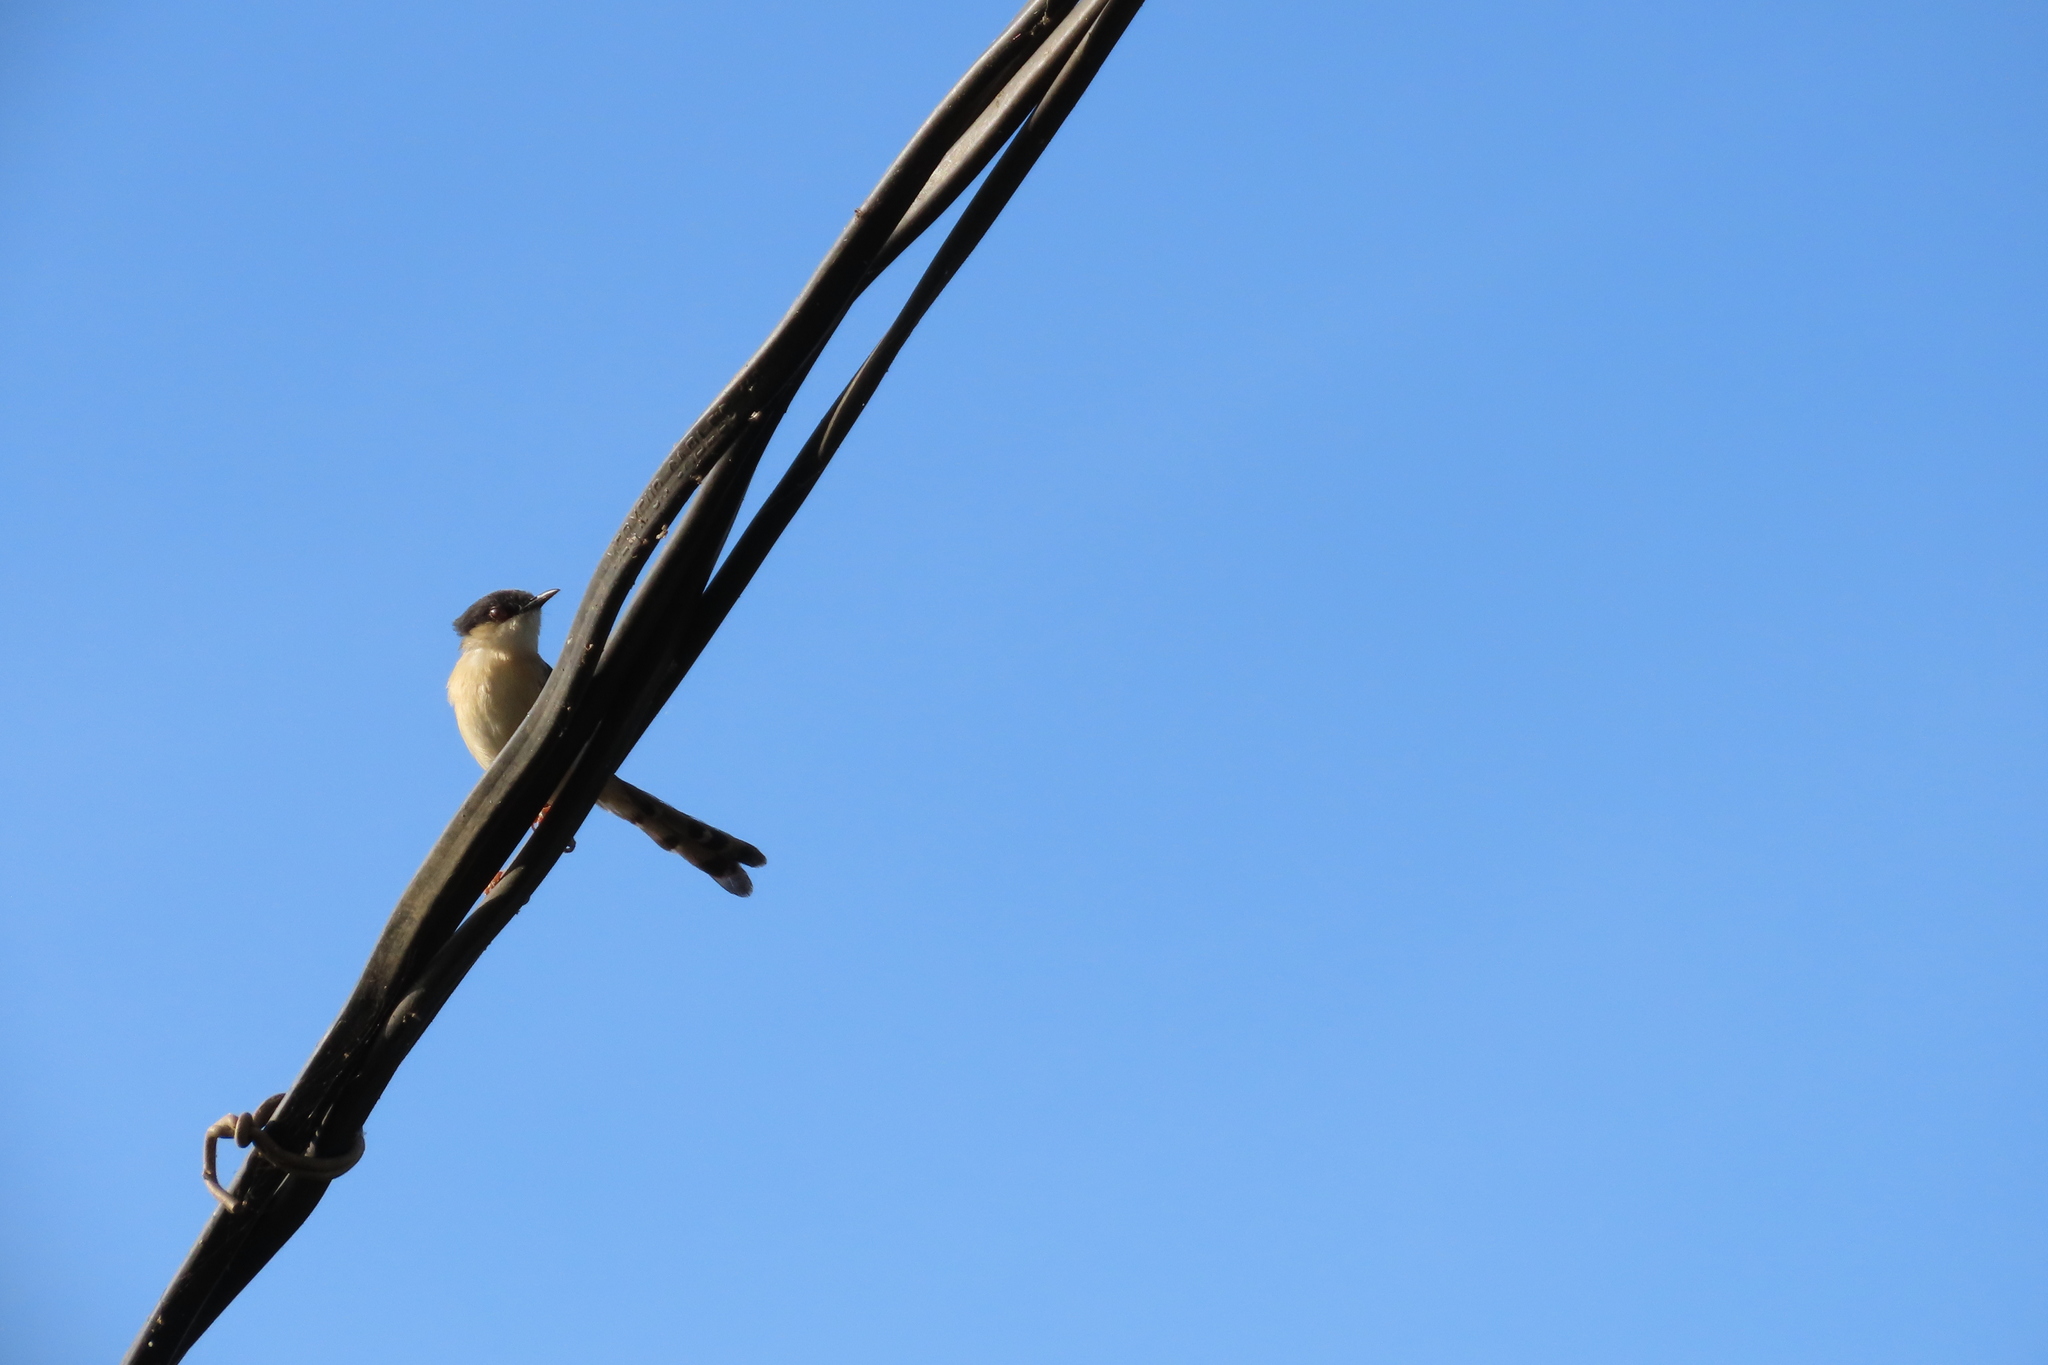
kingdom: Animalia
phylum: Chordata
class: Aves
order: Passeriformes
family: Cisticolidae
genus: Prinia
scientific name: Prinia socialis
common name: Ashy prinia
